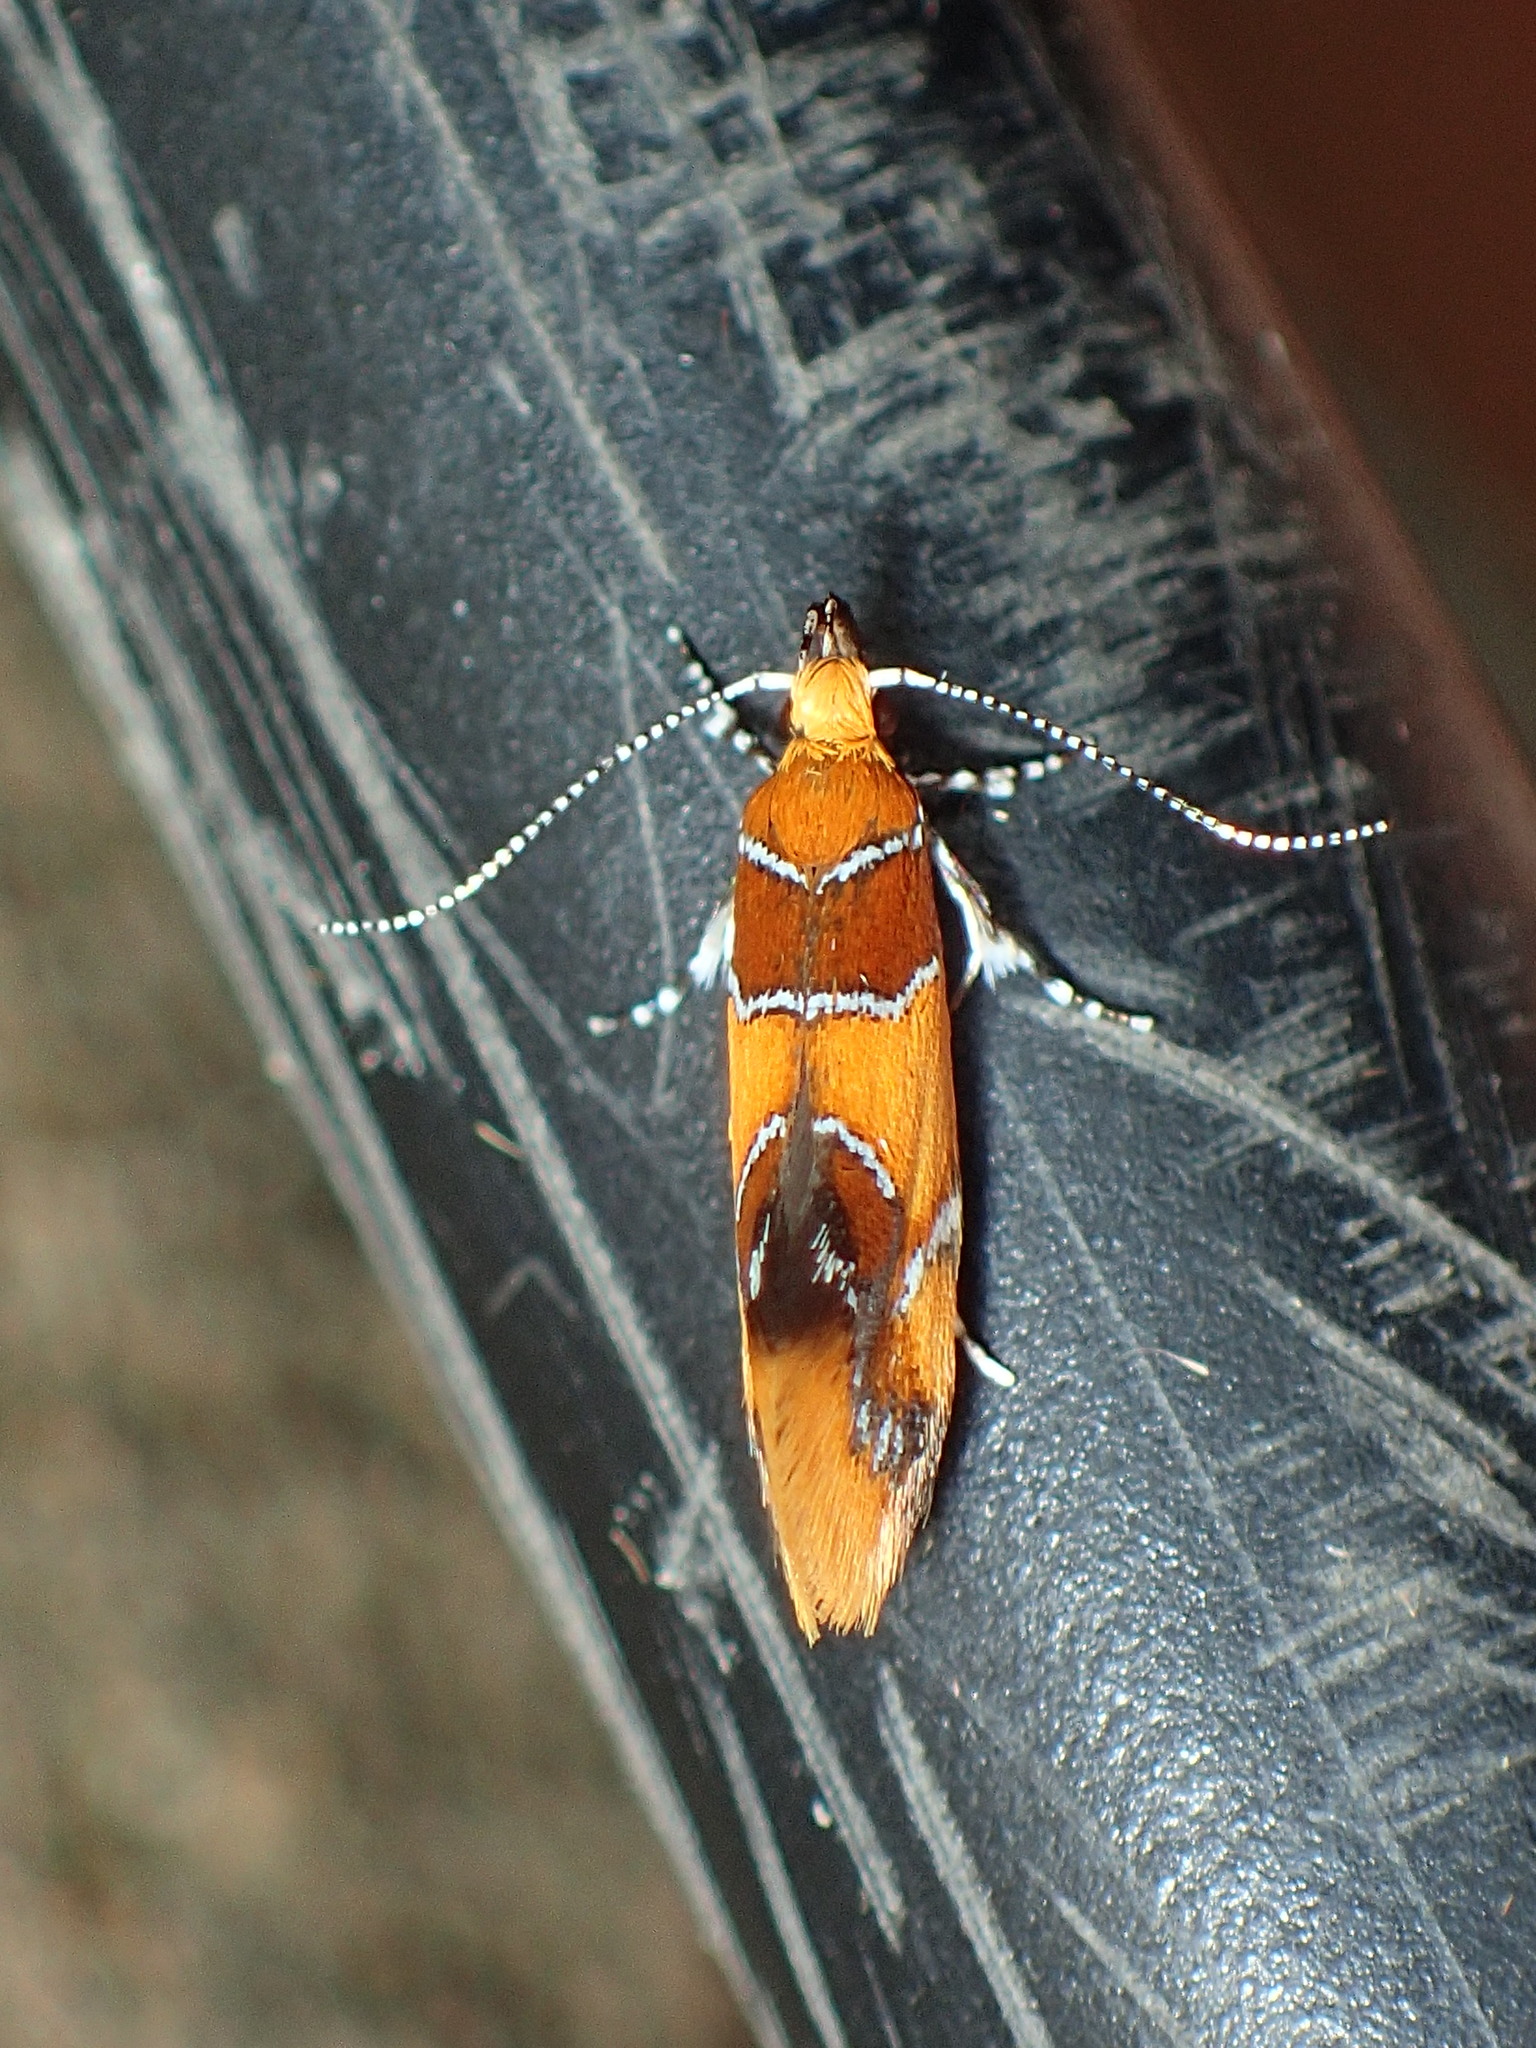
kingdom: Animalia
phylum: Arthropoda
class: Insecta
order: Lepidoptera
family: Oecophoridae
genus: Callima
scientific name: Callima argenticinctella
